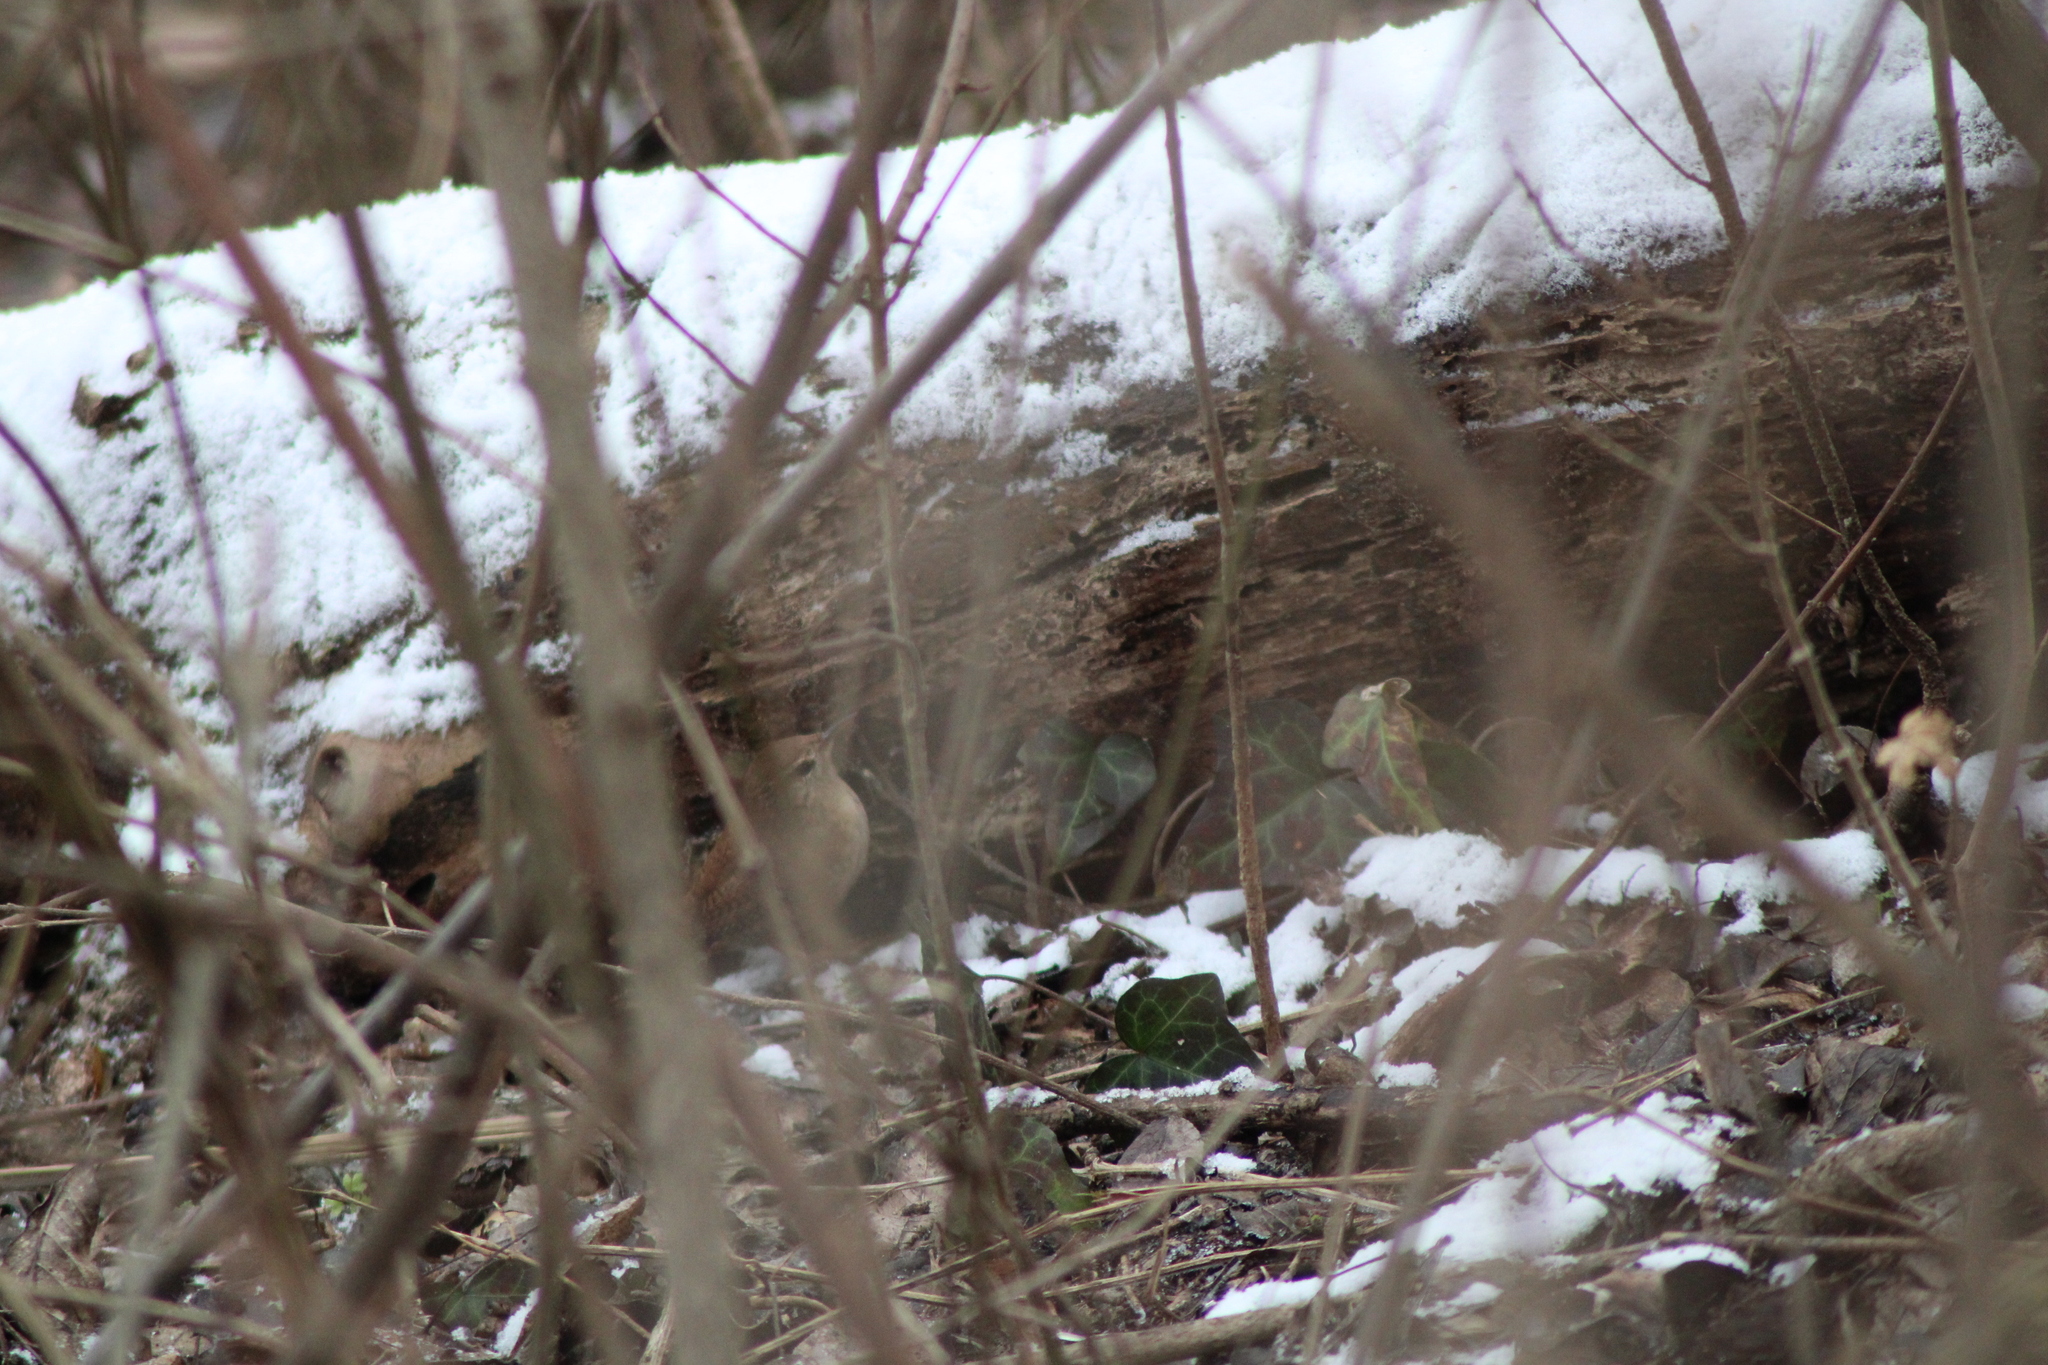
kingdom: Animalia
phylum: Chordata
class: Aves
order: Passeriformes
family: Troglodytidae
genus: Troglodytes
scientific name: Troglodytes troglodytes
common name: Eurasian wren
